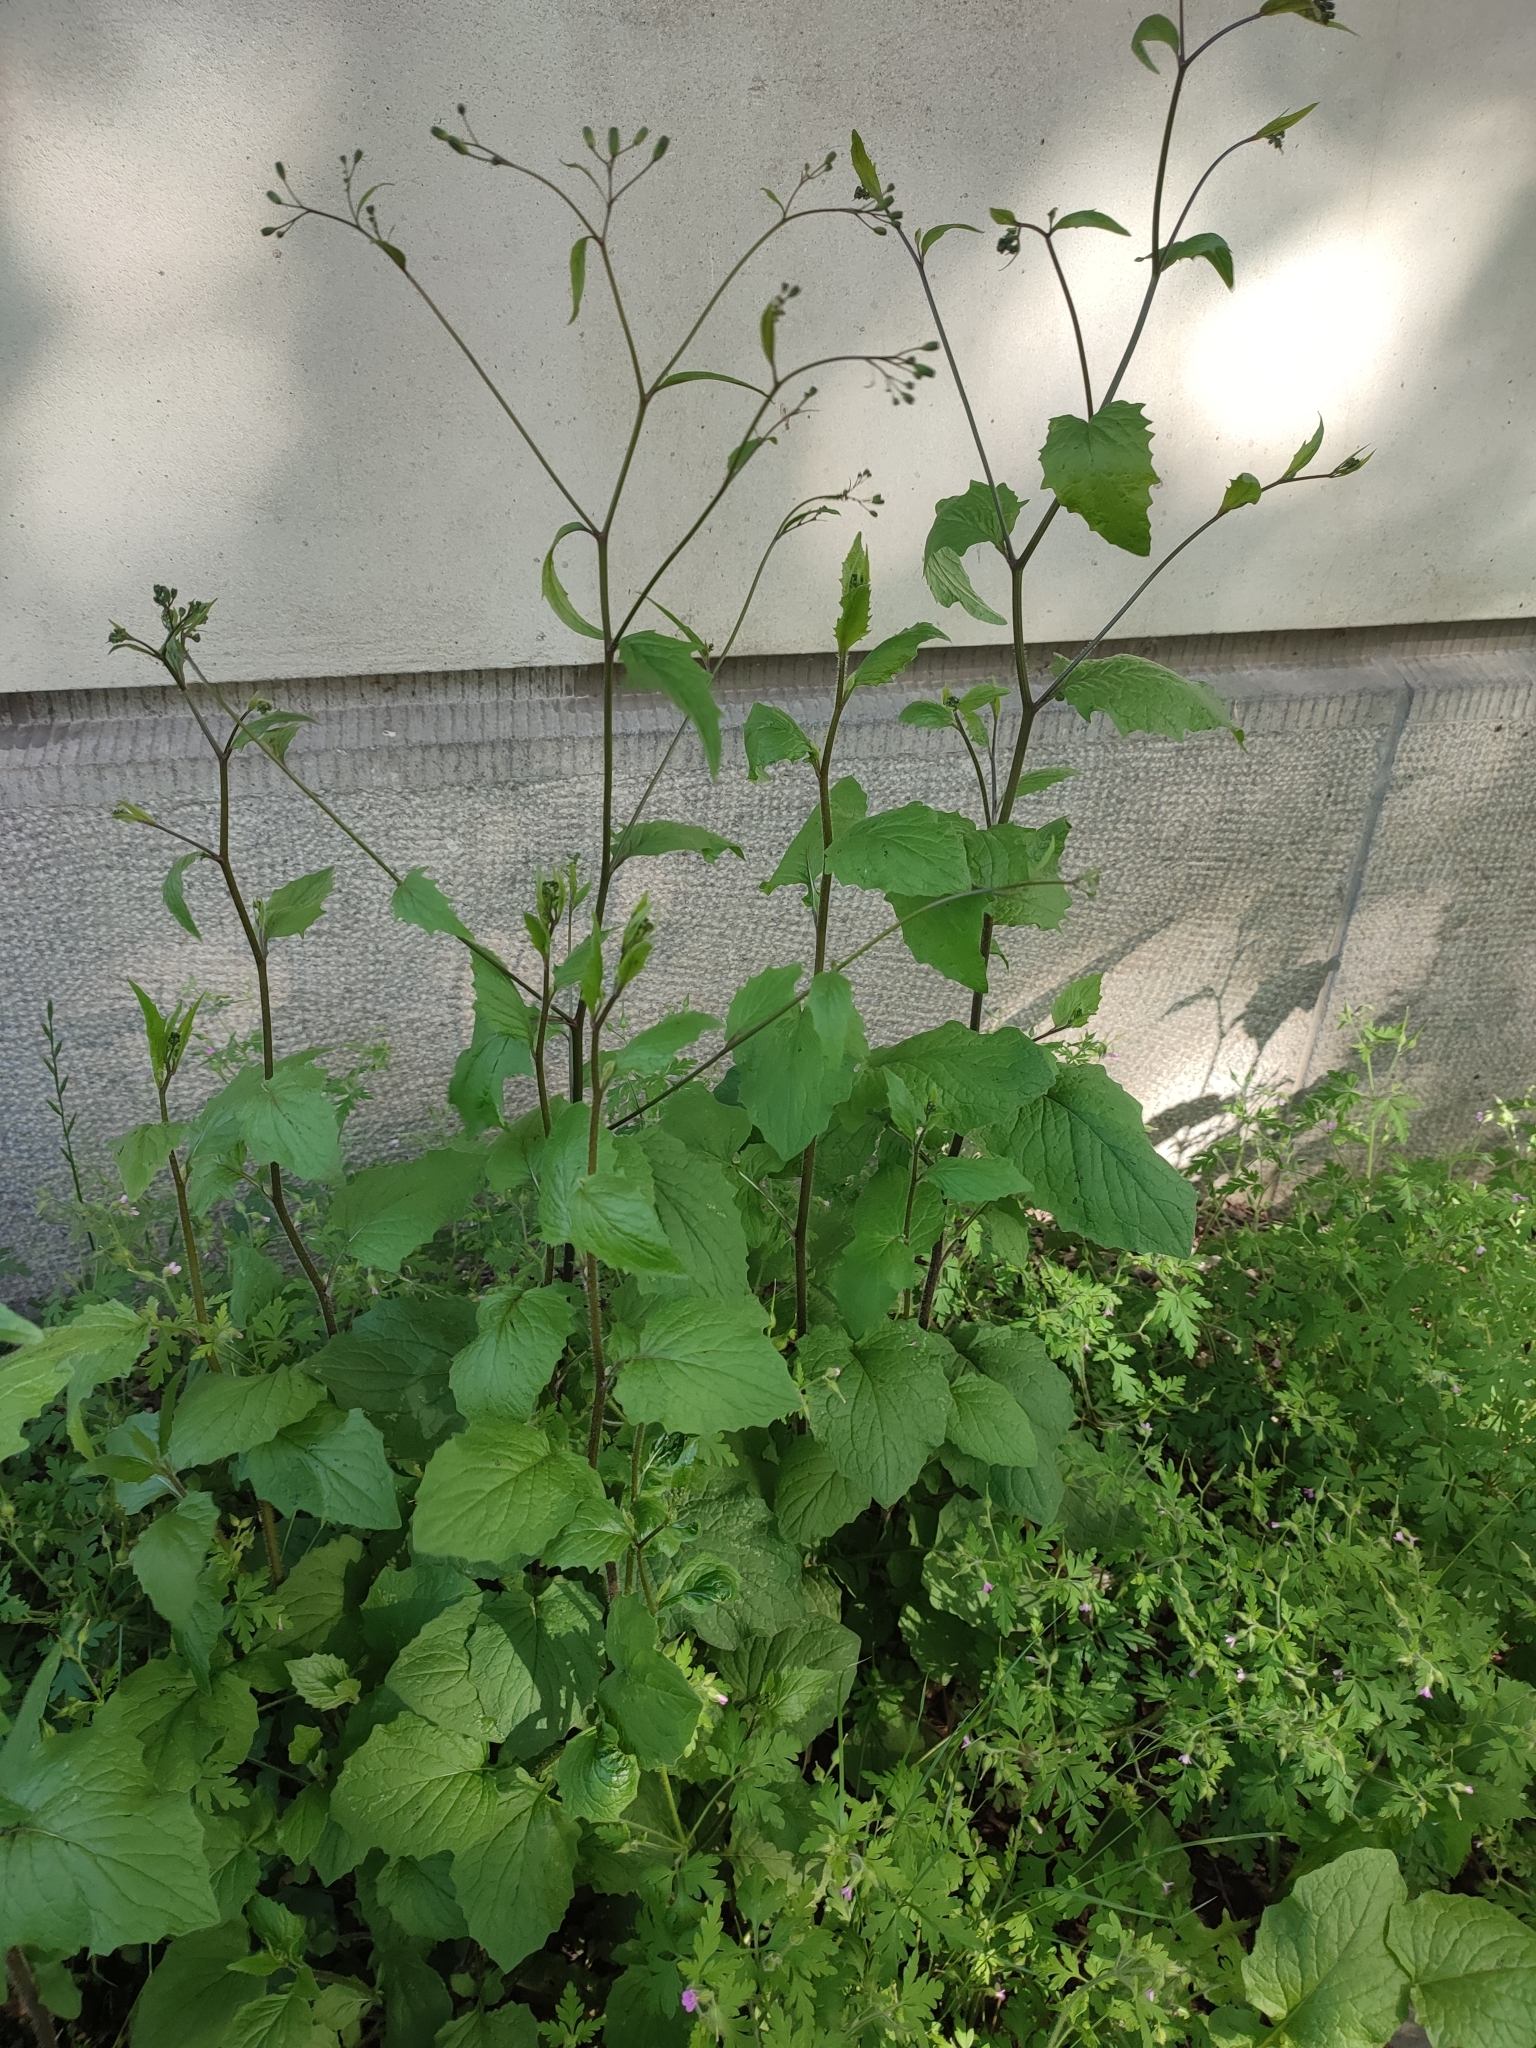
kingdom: Plantae
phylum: Tracheophyta
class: Magnoliopsida
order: Asterales
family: Asteraceae
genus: Lapsana
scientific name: Lapsana communis
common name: Nipplewort
